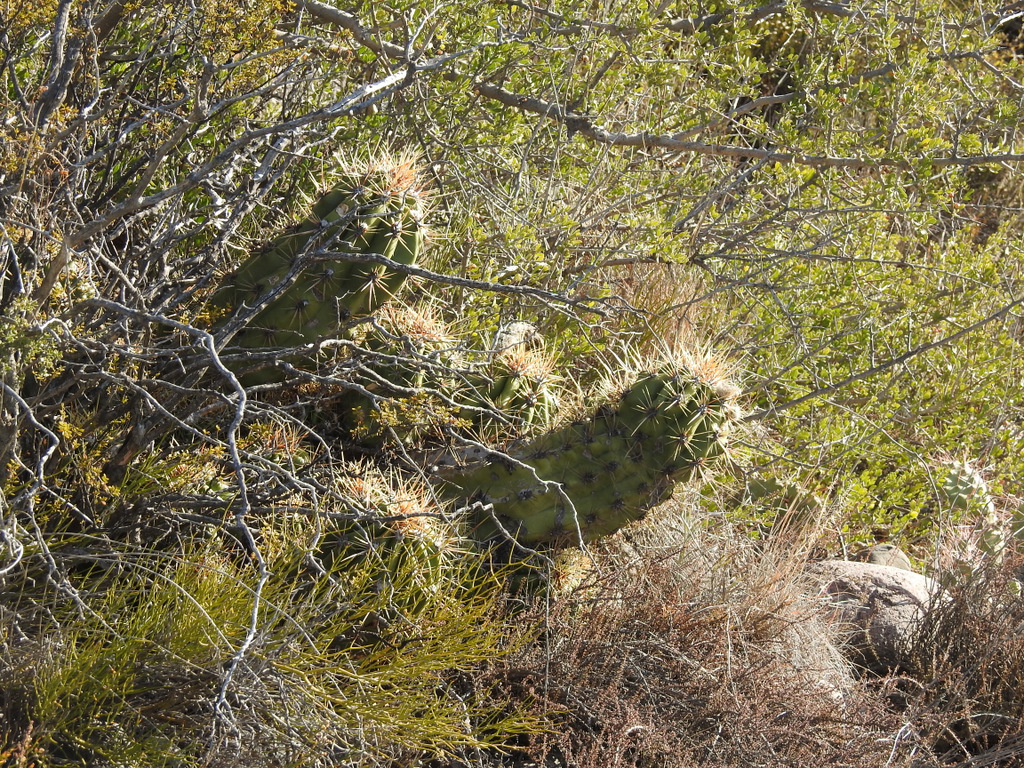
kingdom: Plantae
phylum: Tracheophyta
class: Magnoliopsida
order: Caryophyllales
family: Cactaceae
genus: Soehrensia
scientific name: Soehrensia candicans
